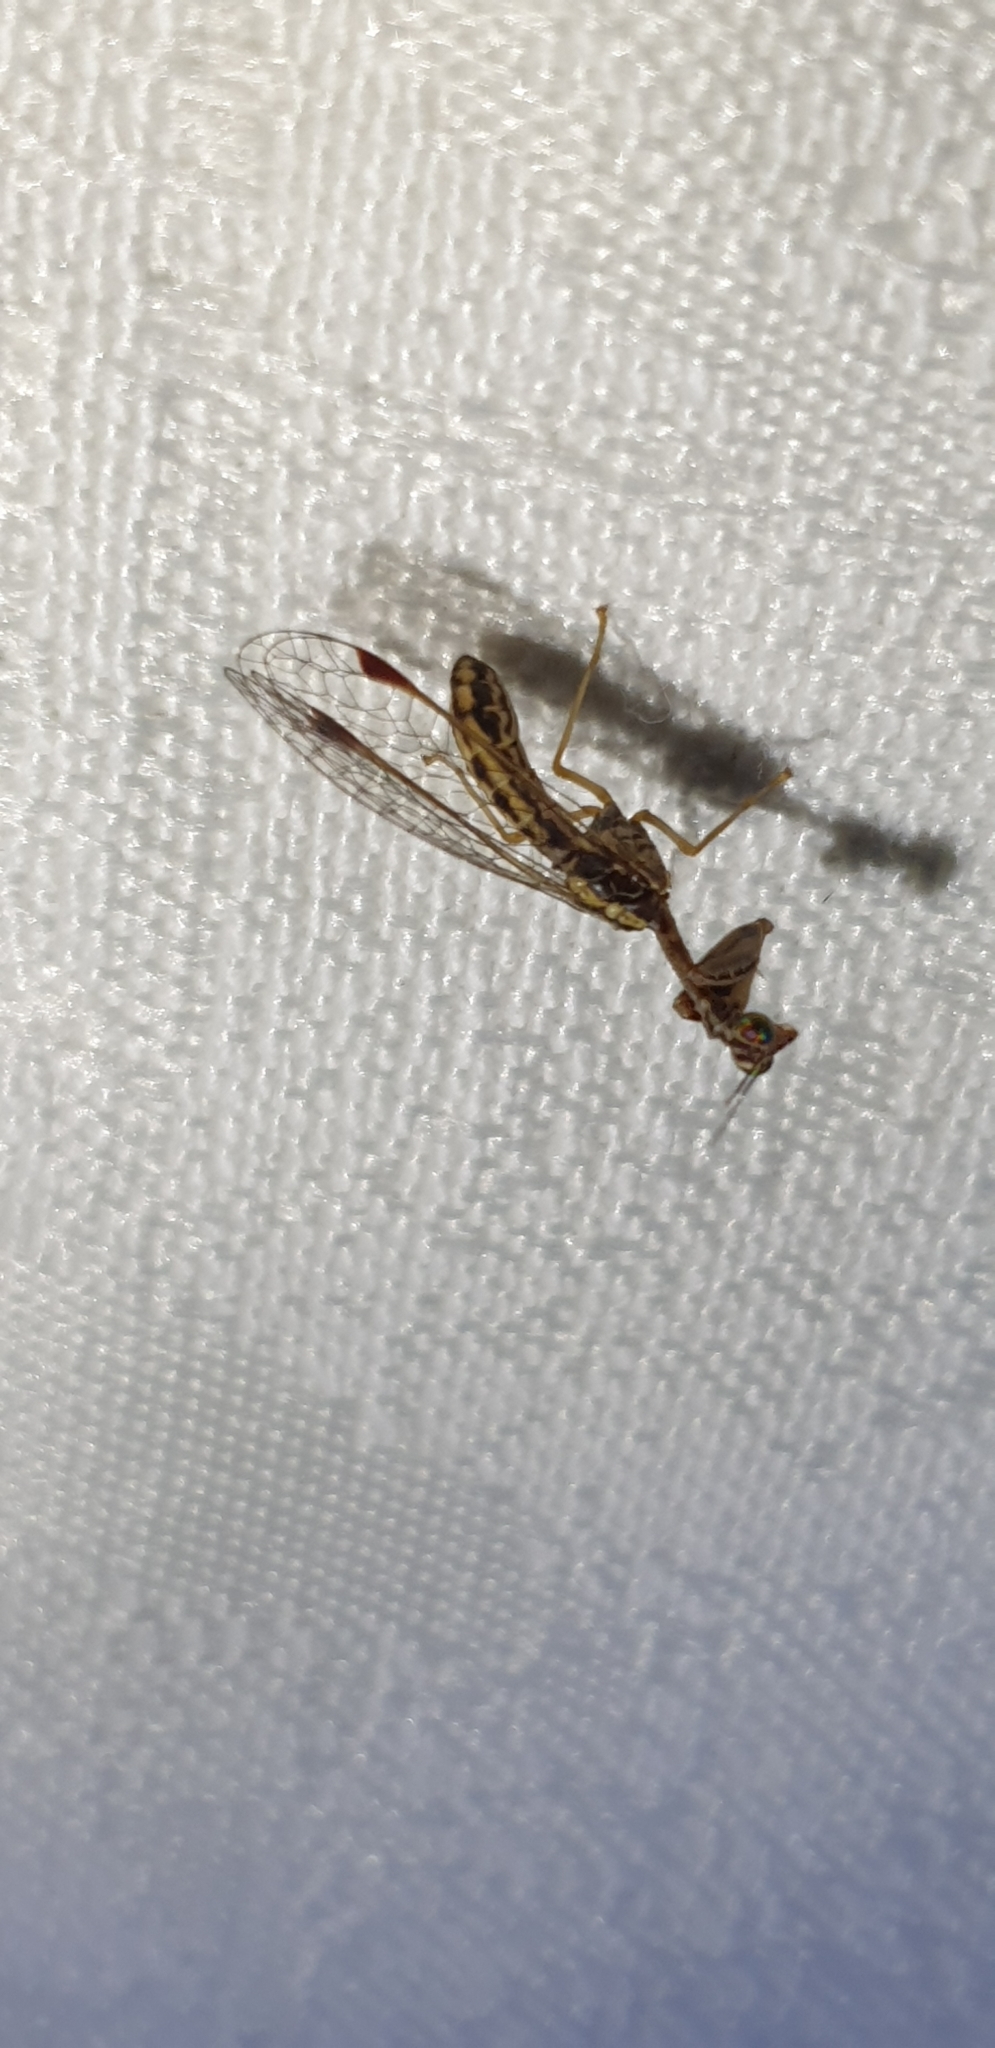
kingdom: Animalia
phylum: Arthropoda
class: Insecta
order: Neuroptera
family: Mantispidae
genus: Austromantispa
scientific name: Austromantispa trevori
